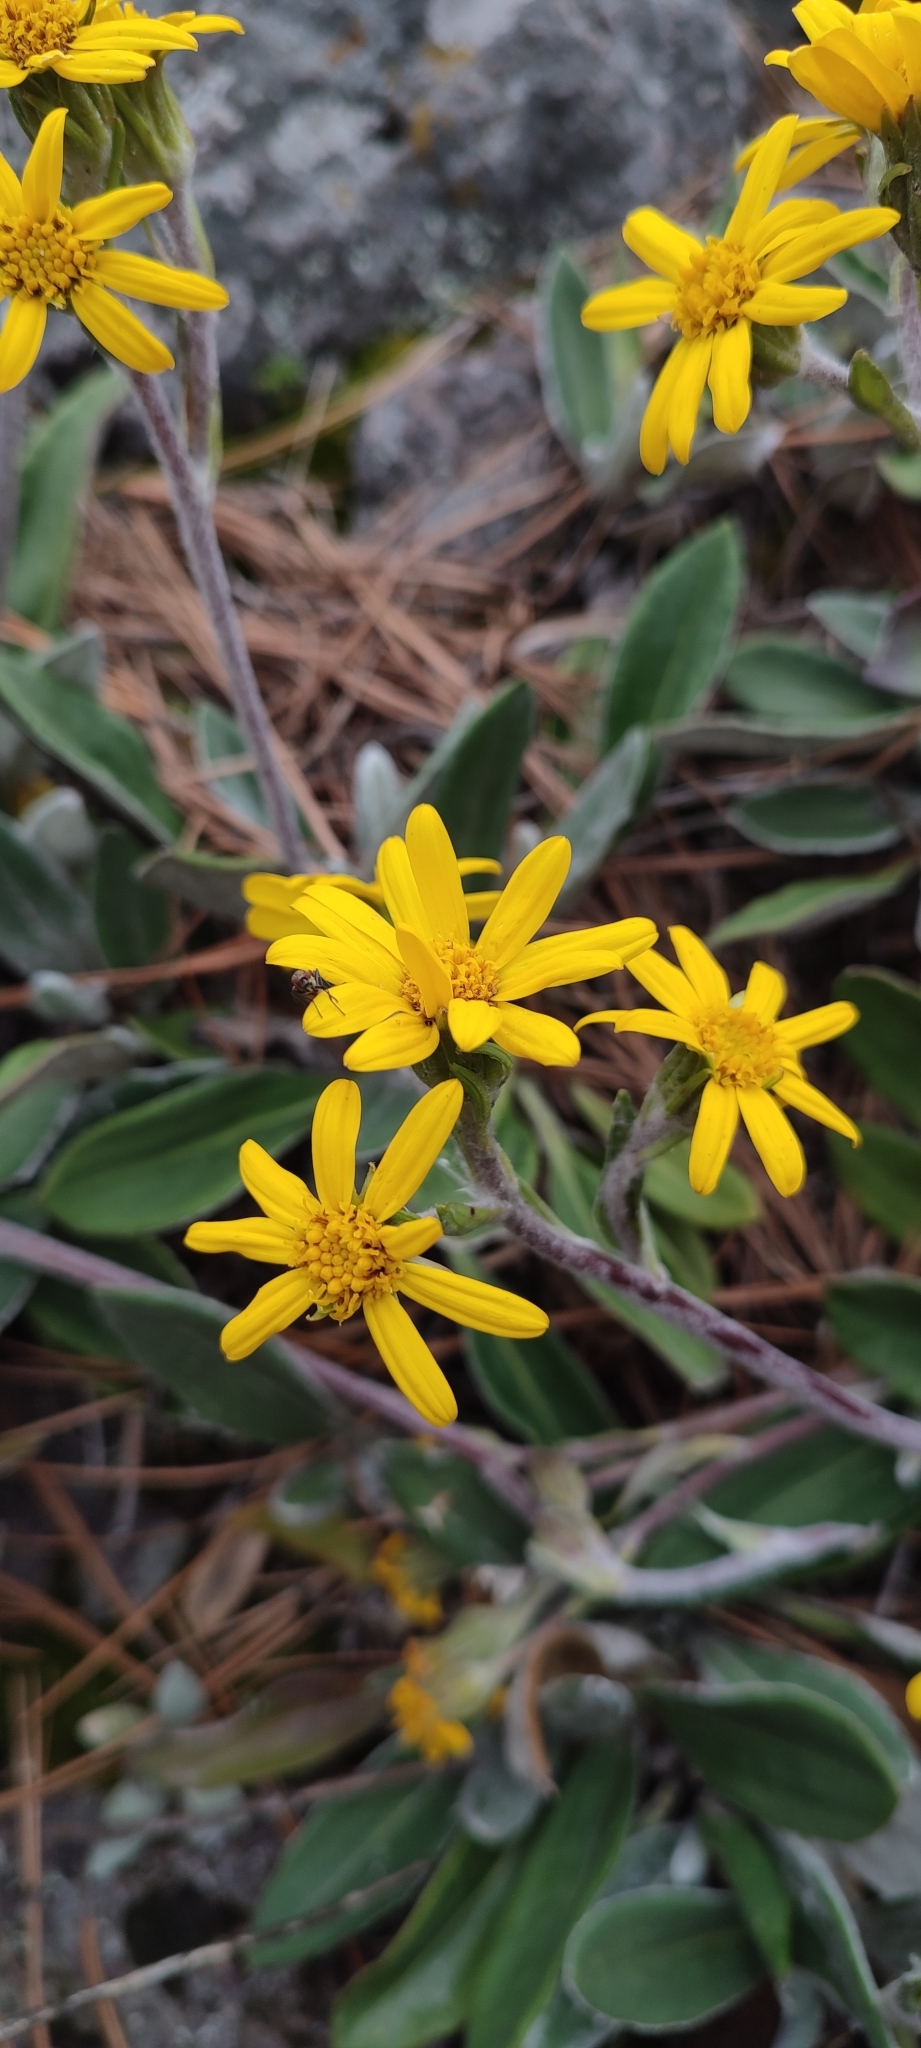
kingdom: Plantae
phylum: Tracheophyta
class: Magnoliopsida
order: Asterales
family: Asteraceae
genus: Robinsonecio
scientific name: Robinsonecio gerberifolius
